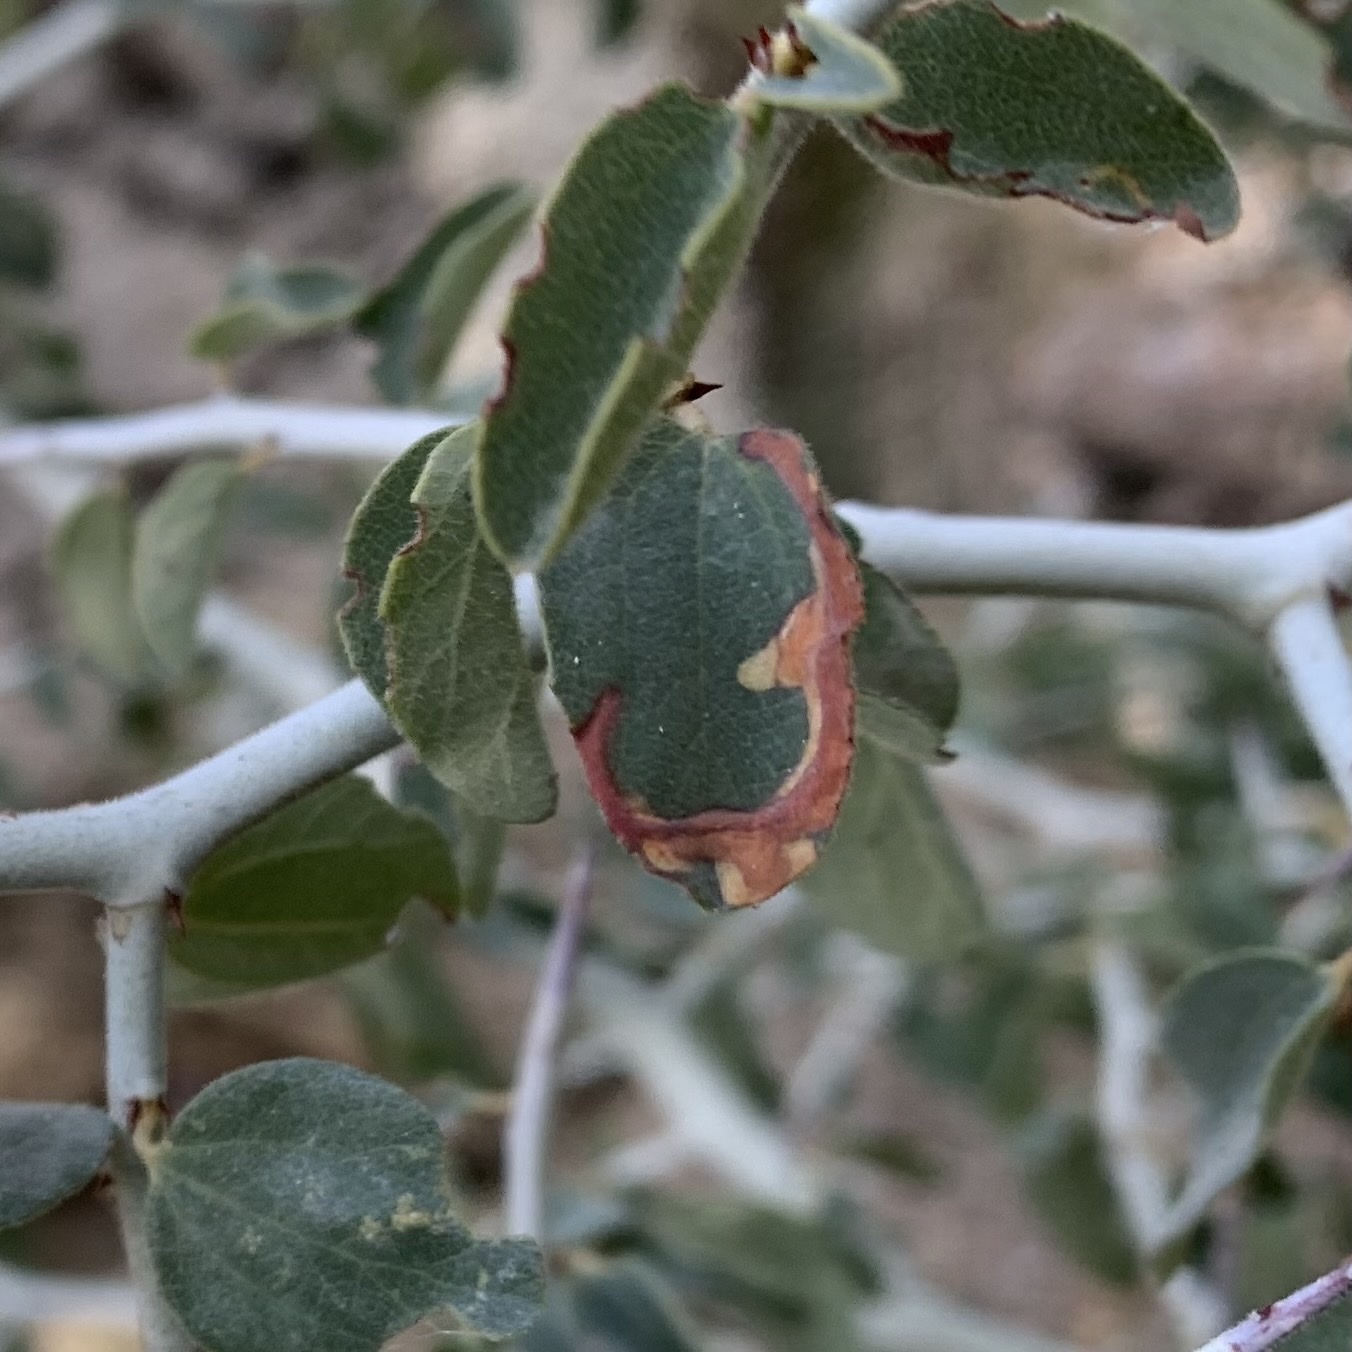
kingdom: Animalia
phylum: Arthropoda
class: Insecta
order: Lepidoptera
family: Gelechiidae
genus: Xenolechia
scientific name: Xenolechia ceanothiella
